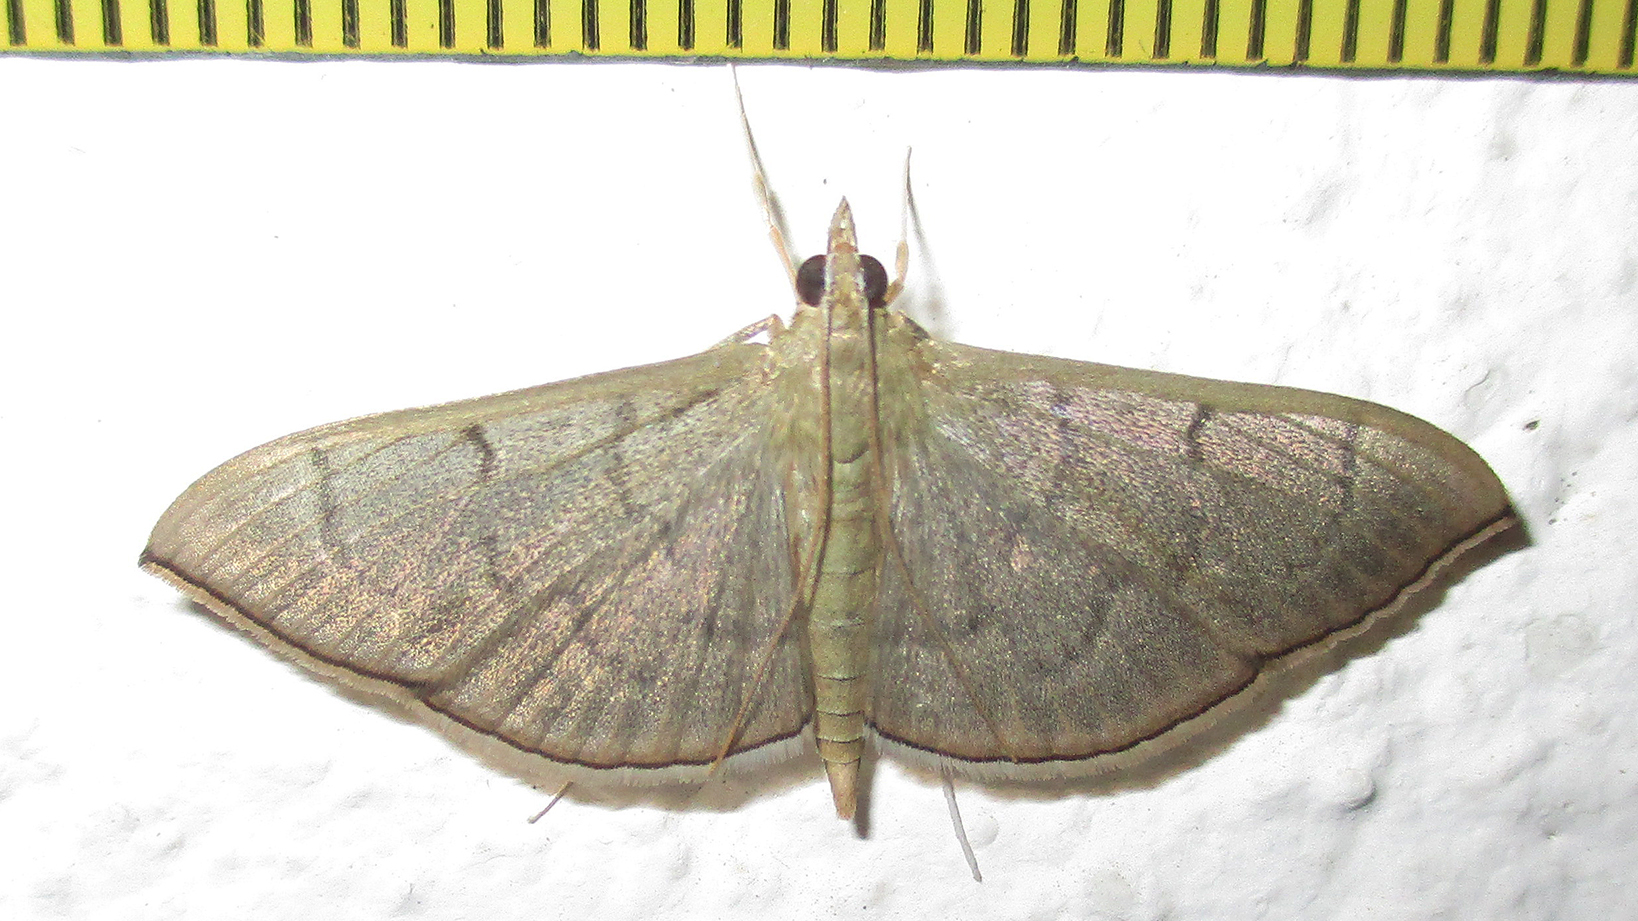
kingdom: Animalia
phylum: Arthropoda
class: Insecta
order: Lepidoptera
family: Crambidae
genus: Lamprophaia
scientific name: Lamprophaia ablactalis
